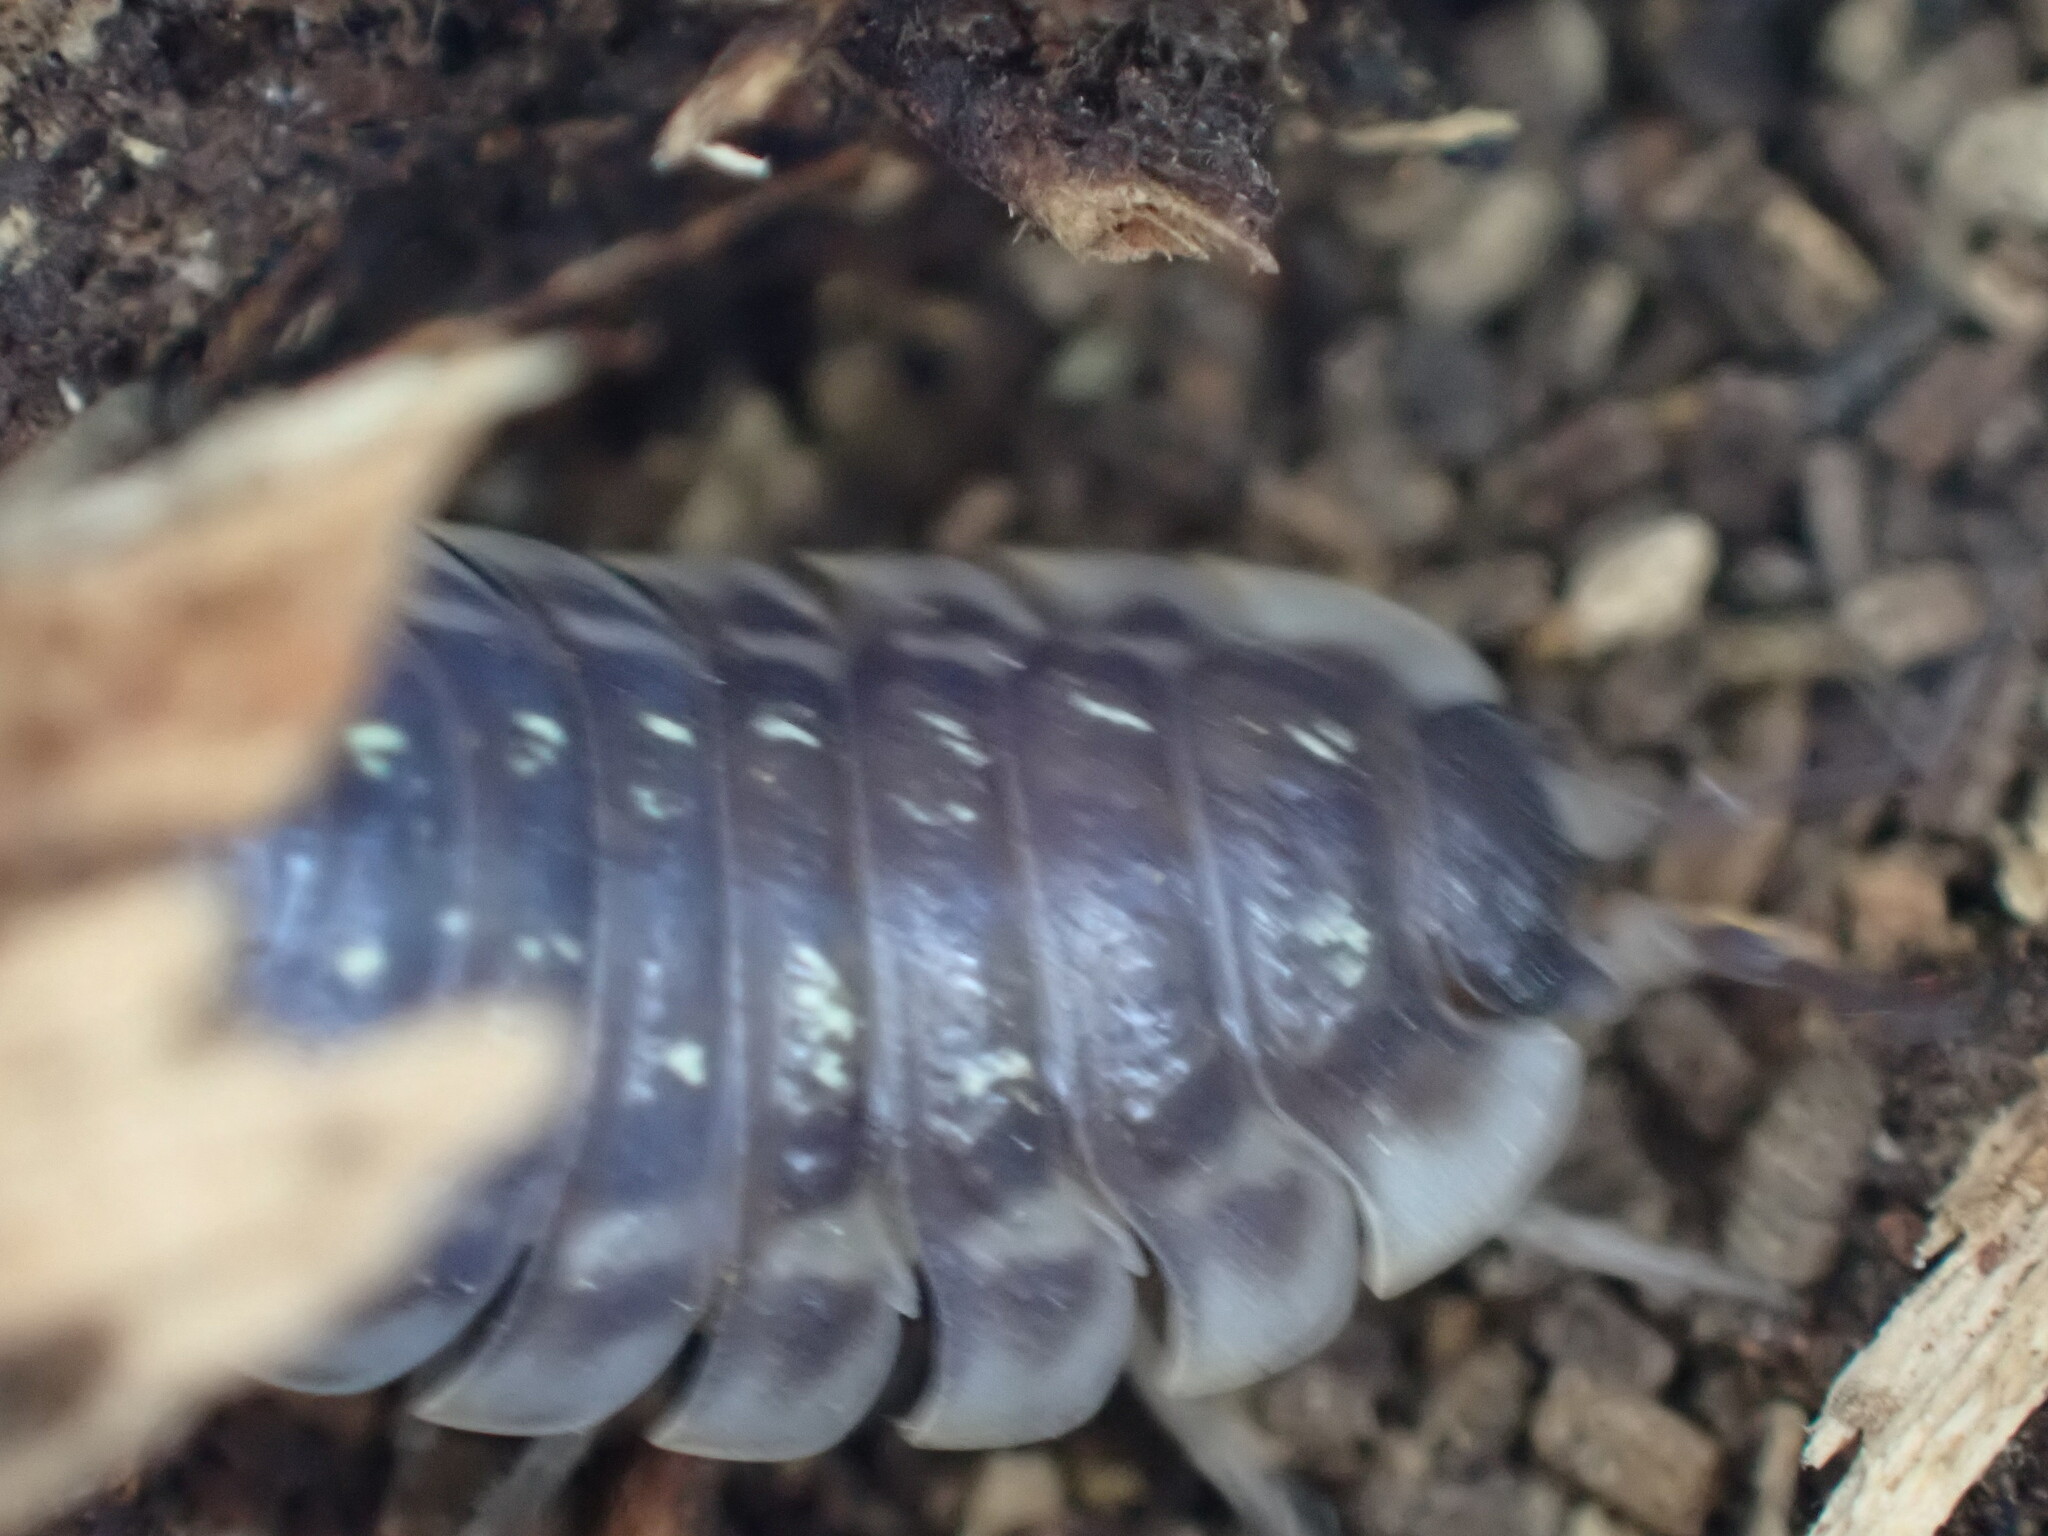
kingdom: Animalia
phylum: Arthropoda
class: Malacostraca
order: Isopoda
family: Oniscidae
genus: Oniscus
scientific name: Oniscus asellus
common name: Common shiny woodlouse
